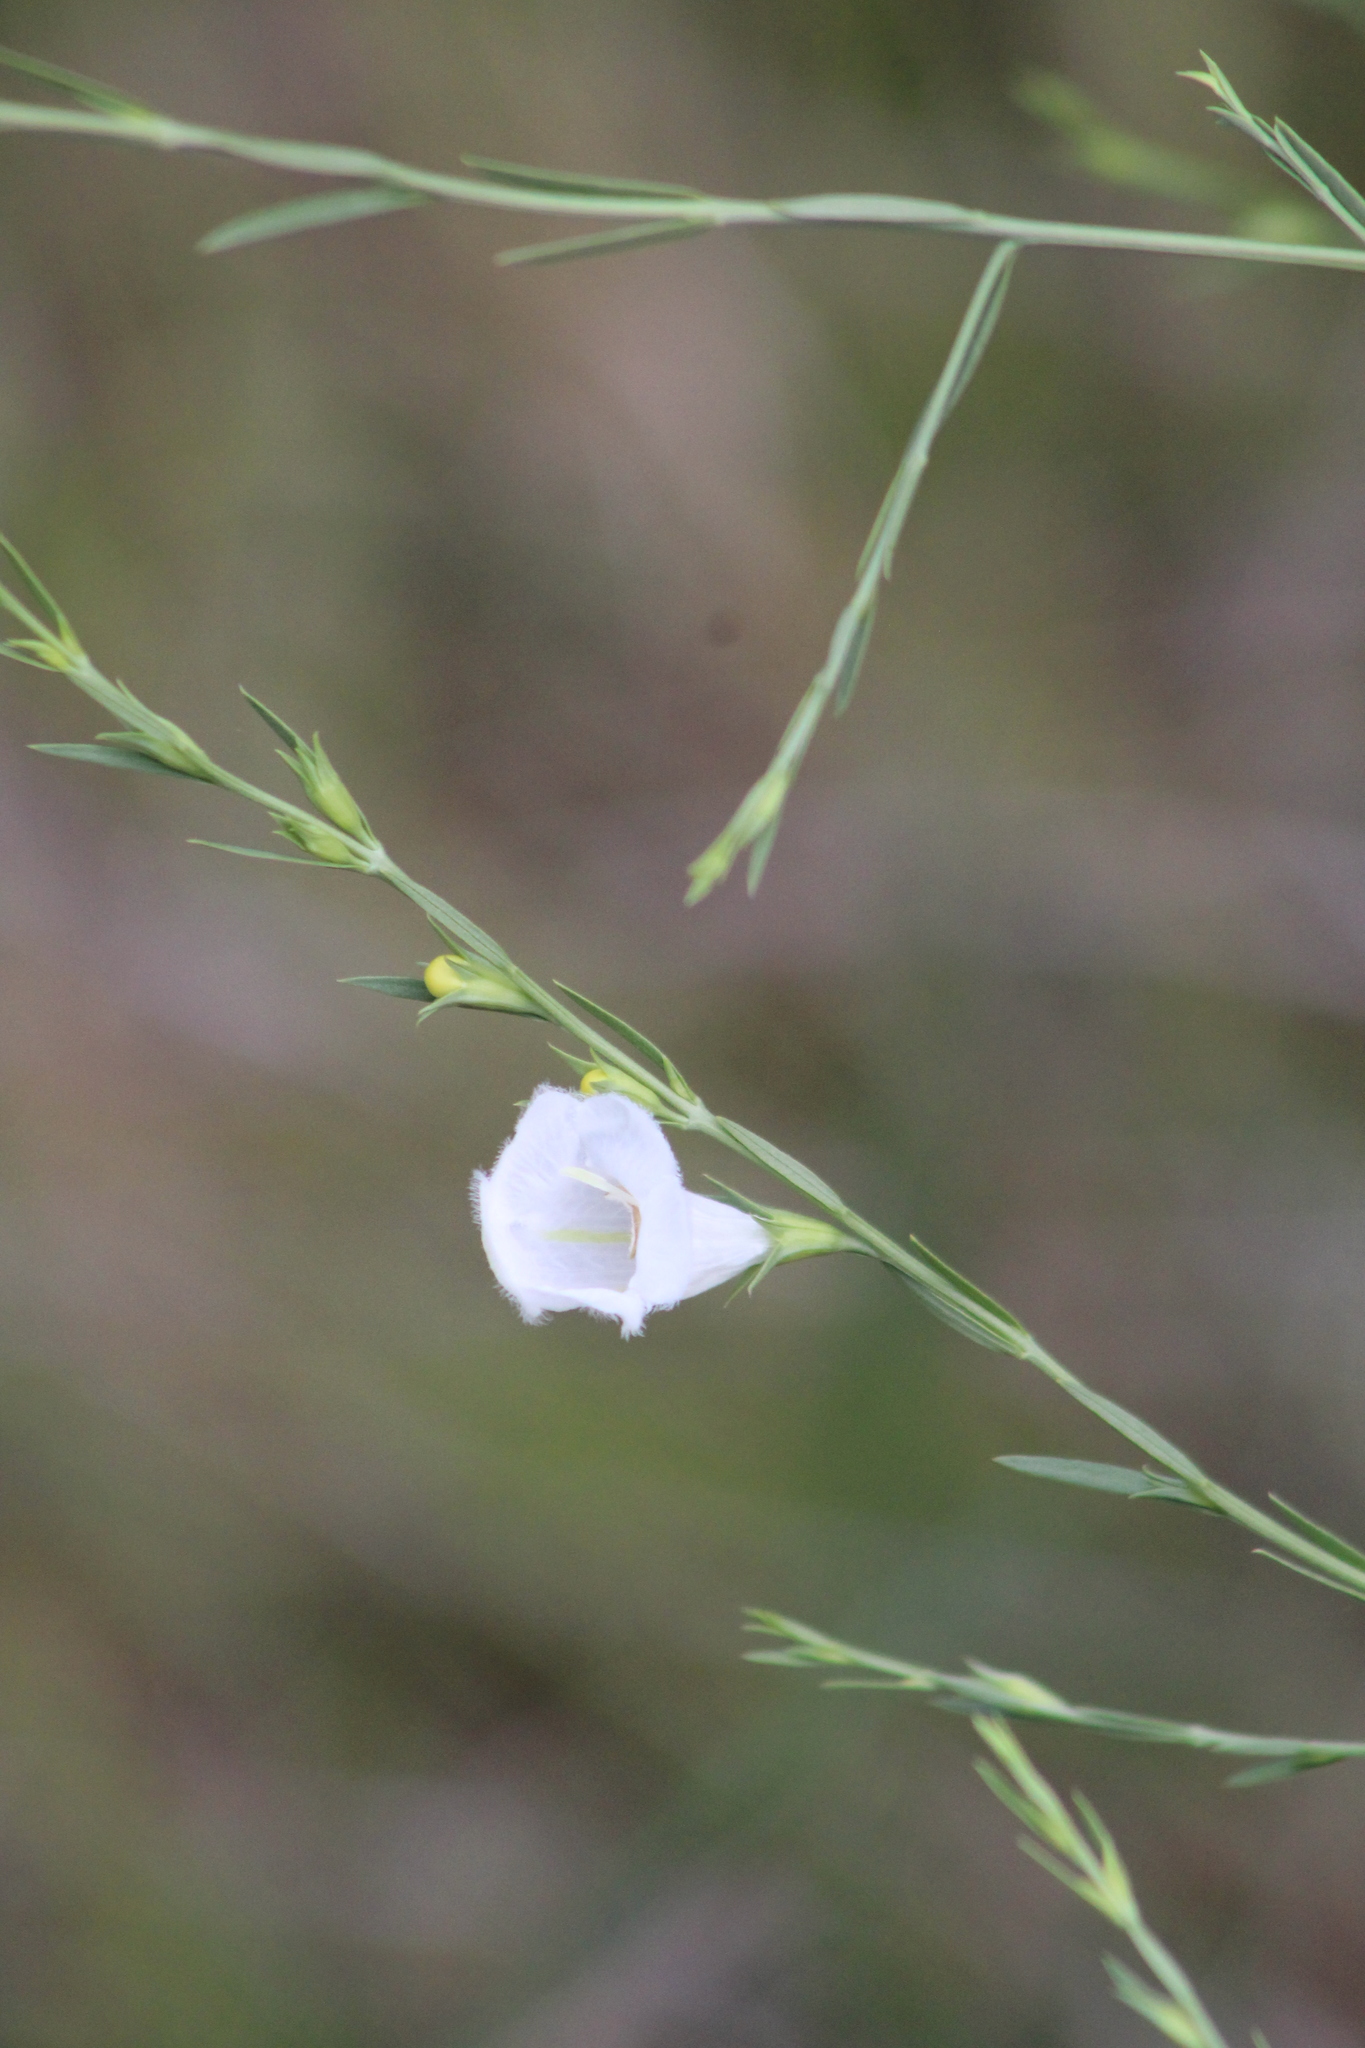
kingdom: Plantae
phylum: Tracheophyta
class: Magnoliopsida
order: Lamiales
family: Orobanchaceae
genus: Agalinis
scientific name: Agalinis heterophylla
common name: Prairie agalinis
